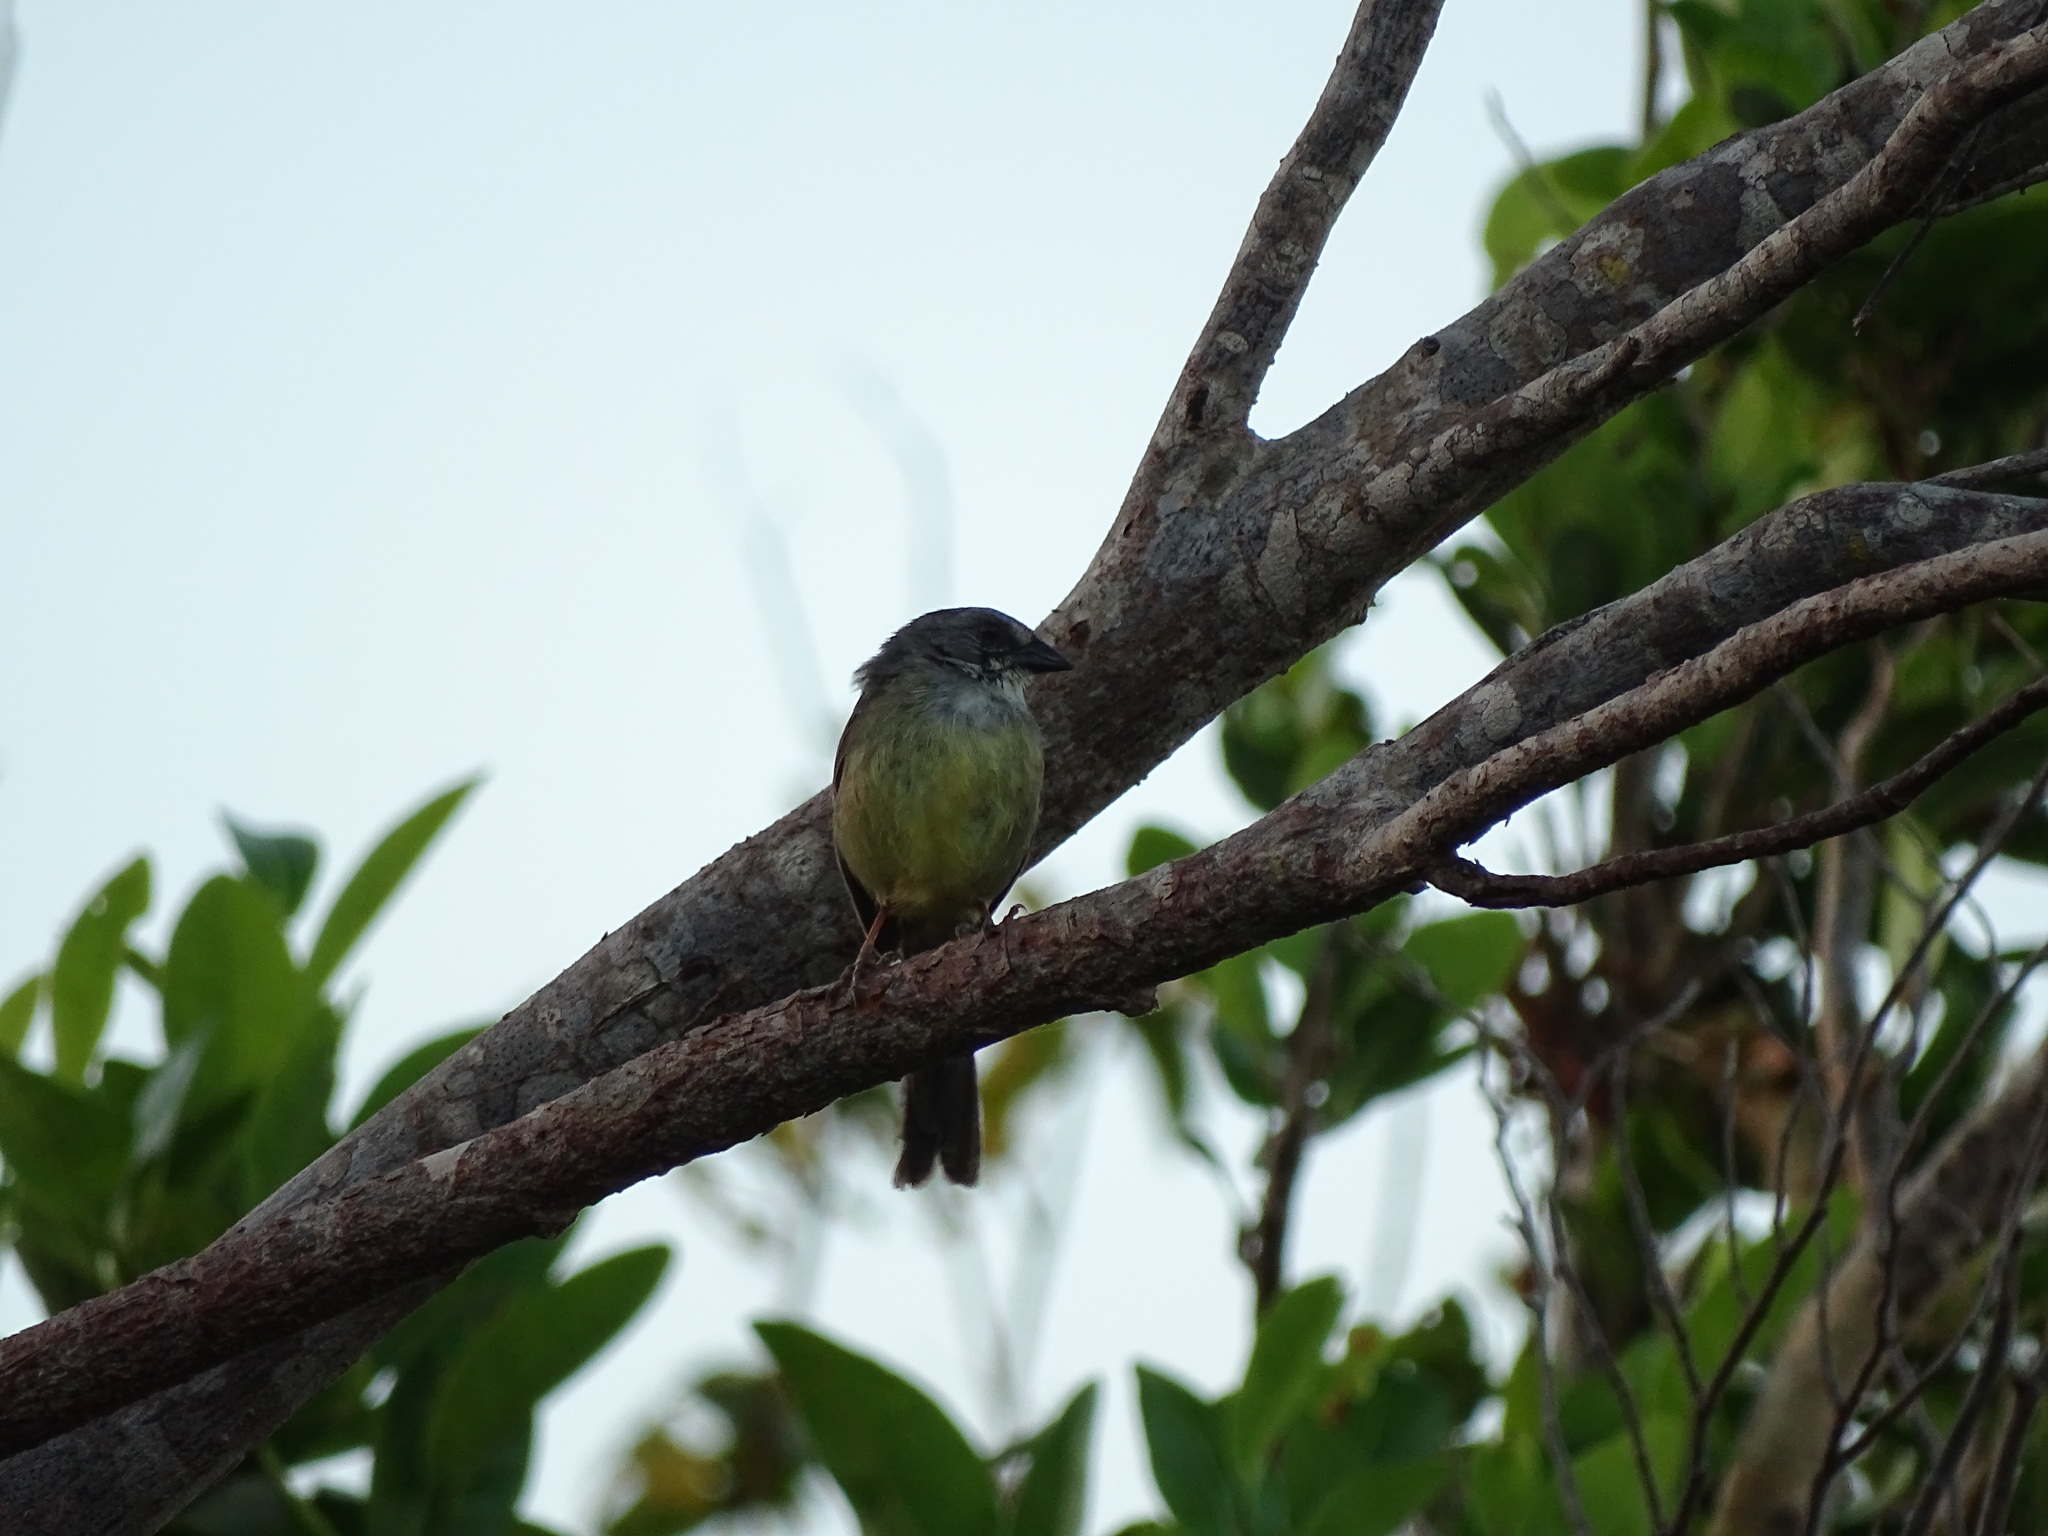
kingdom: Animalia
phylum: Chordata
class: Aves
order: Passeriformes
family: Passerellidae
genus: Torreornis
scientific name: Torreornis inexpectata
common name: Zapata sparrow
